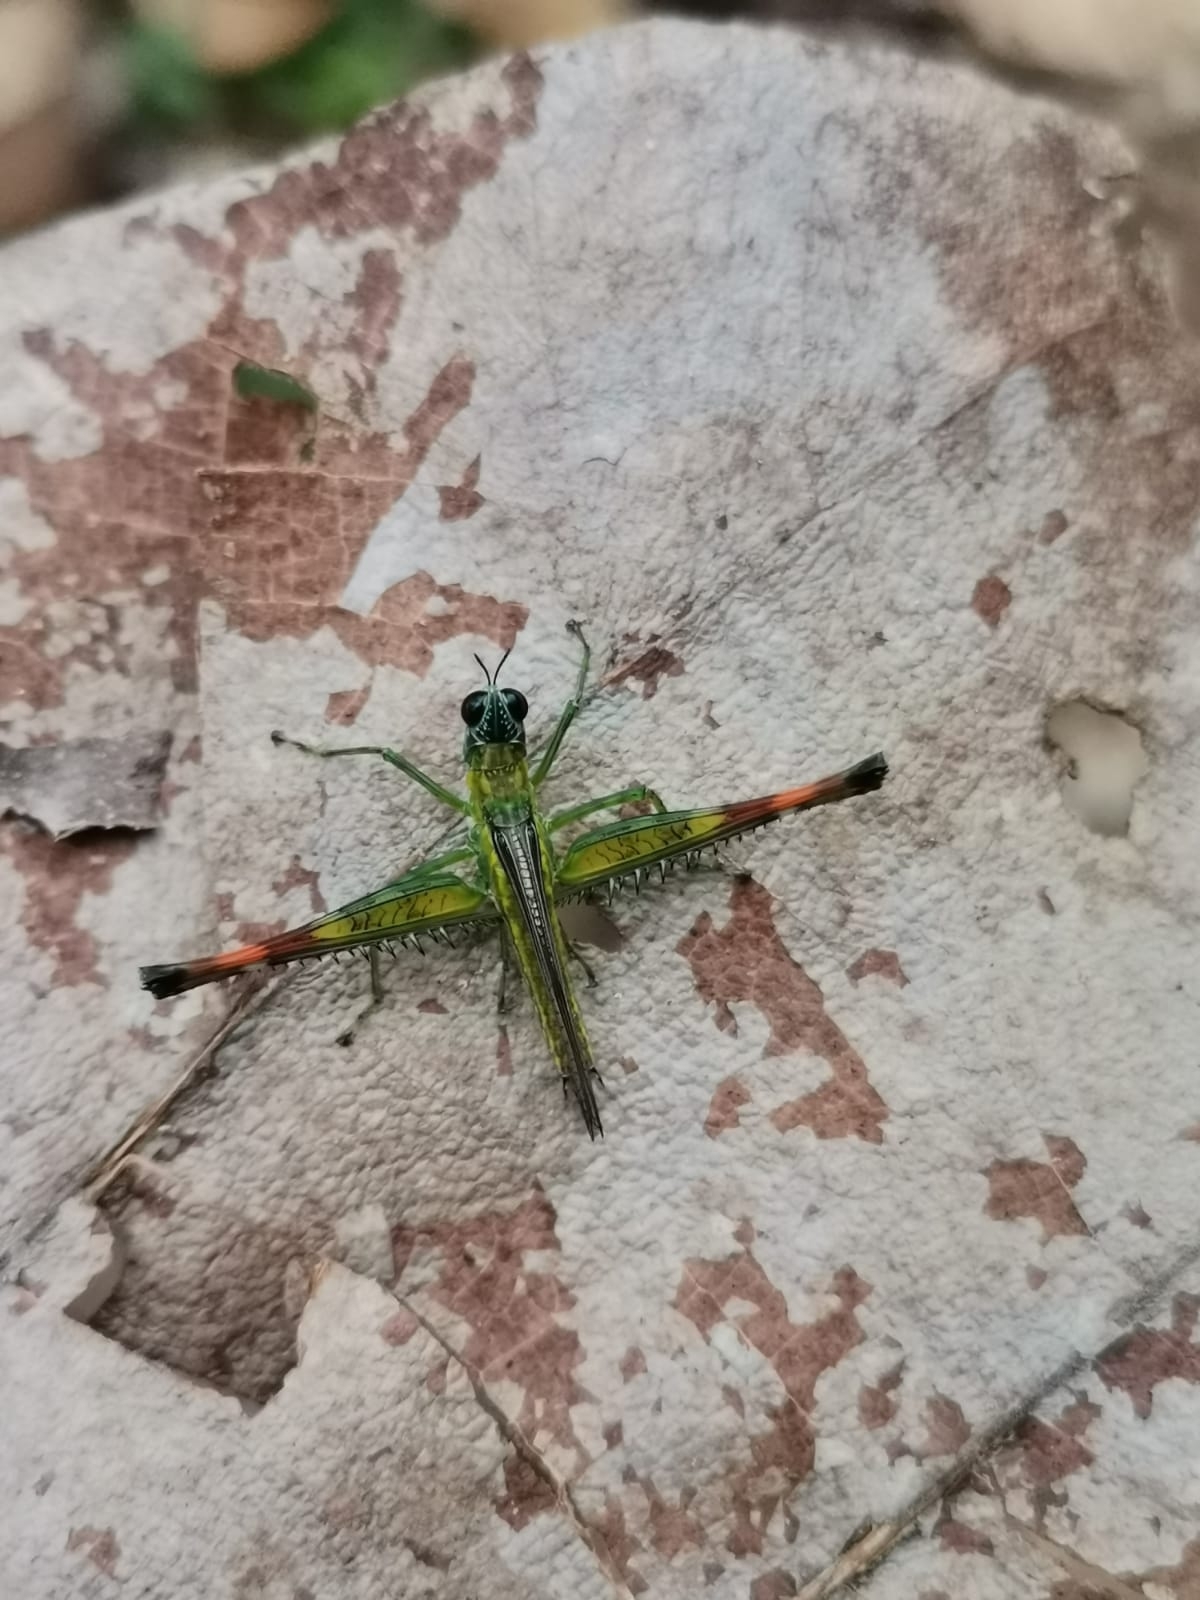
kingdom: Animalia
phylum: Arthropoda
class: Insecta
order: Orthoptera
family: Eumastacidae
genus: Homeomastax
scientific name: Homeomastax kressi
